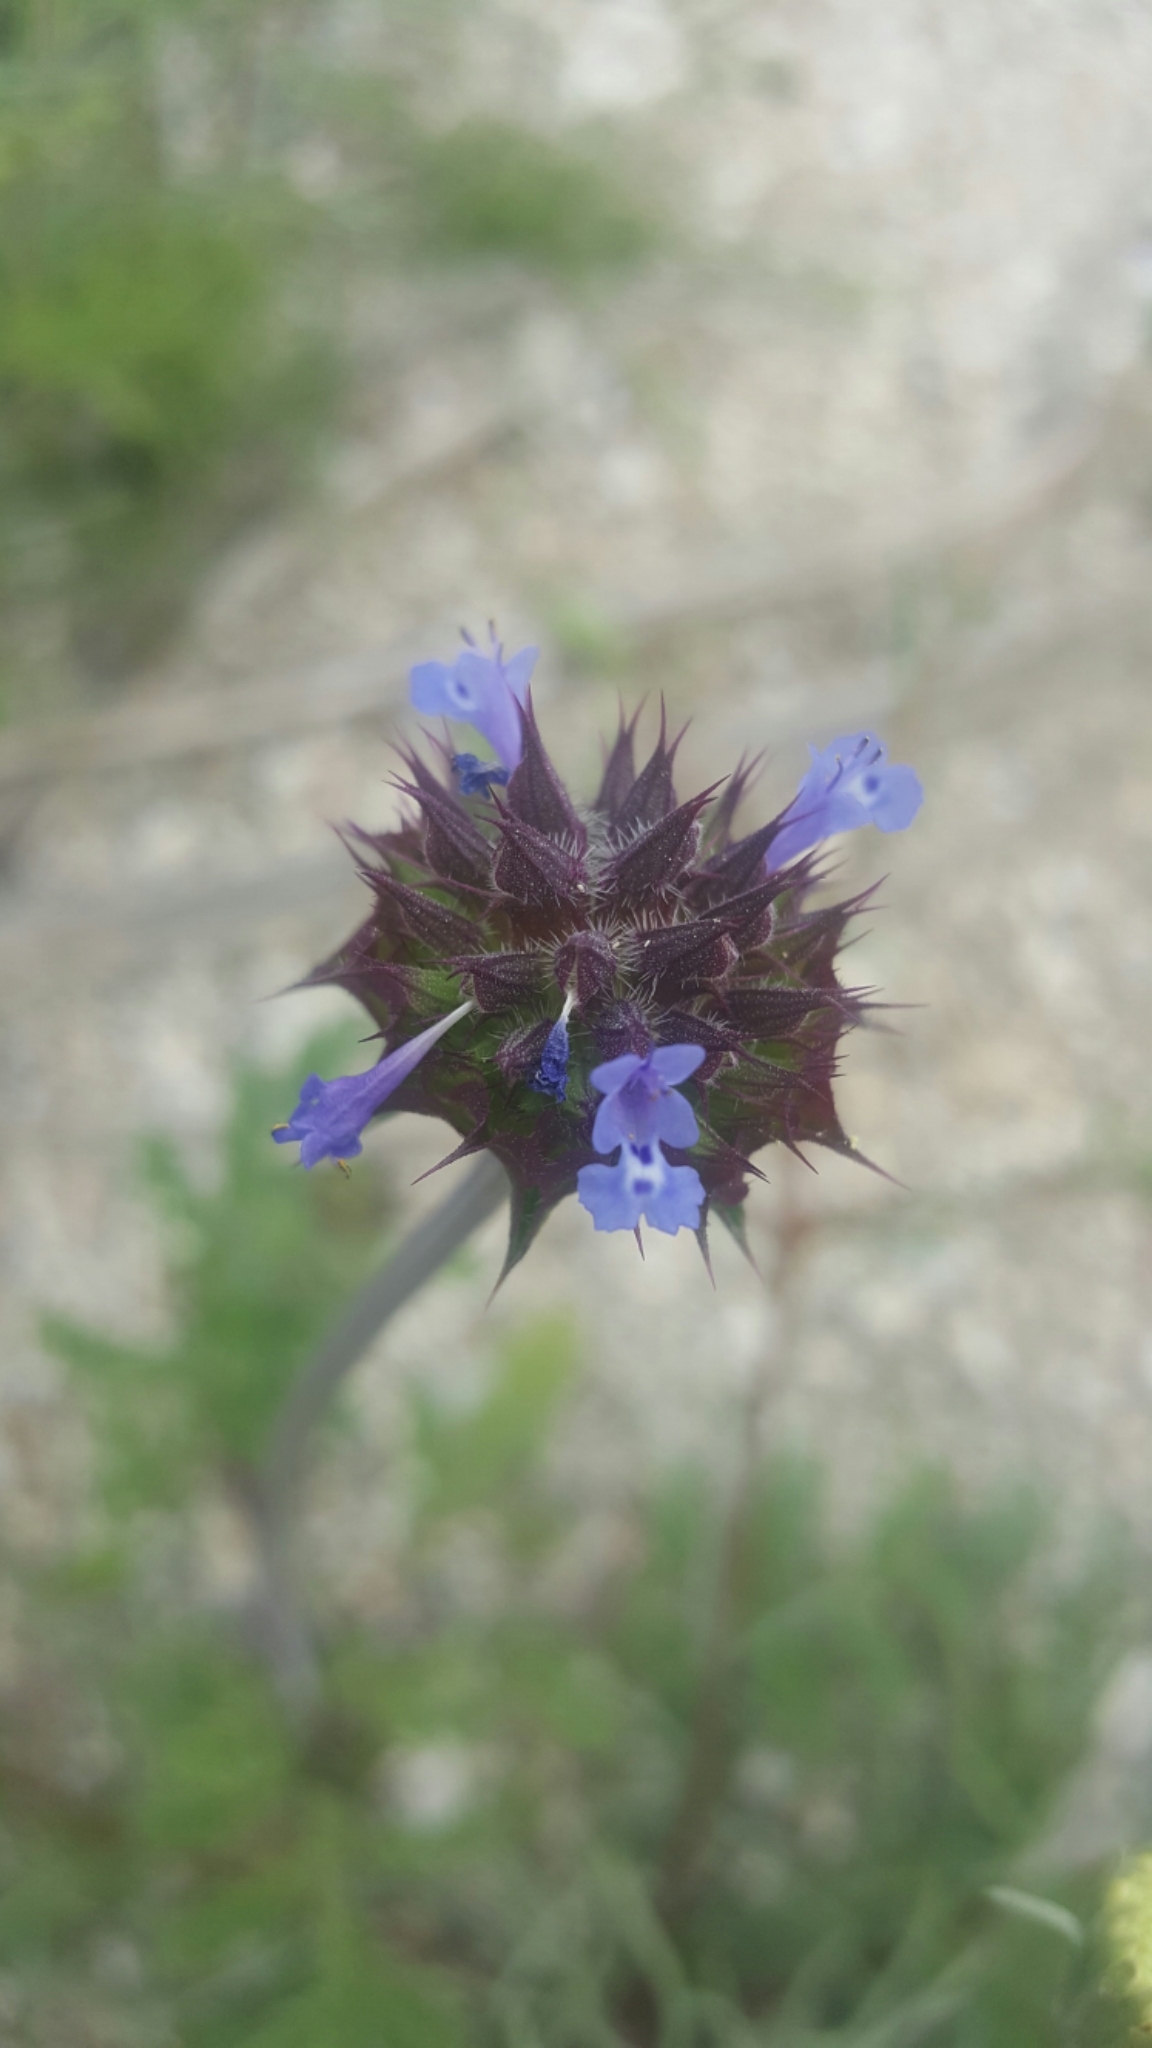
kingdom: Plantae
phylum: Tracheophyta
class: Magnoliopsida
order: Lamiales
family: Lamiaceae
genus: Salvia
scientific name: Salvia columbariae
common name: Chia
